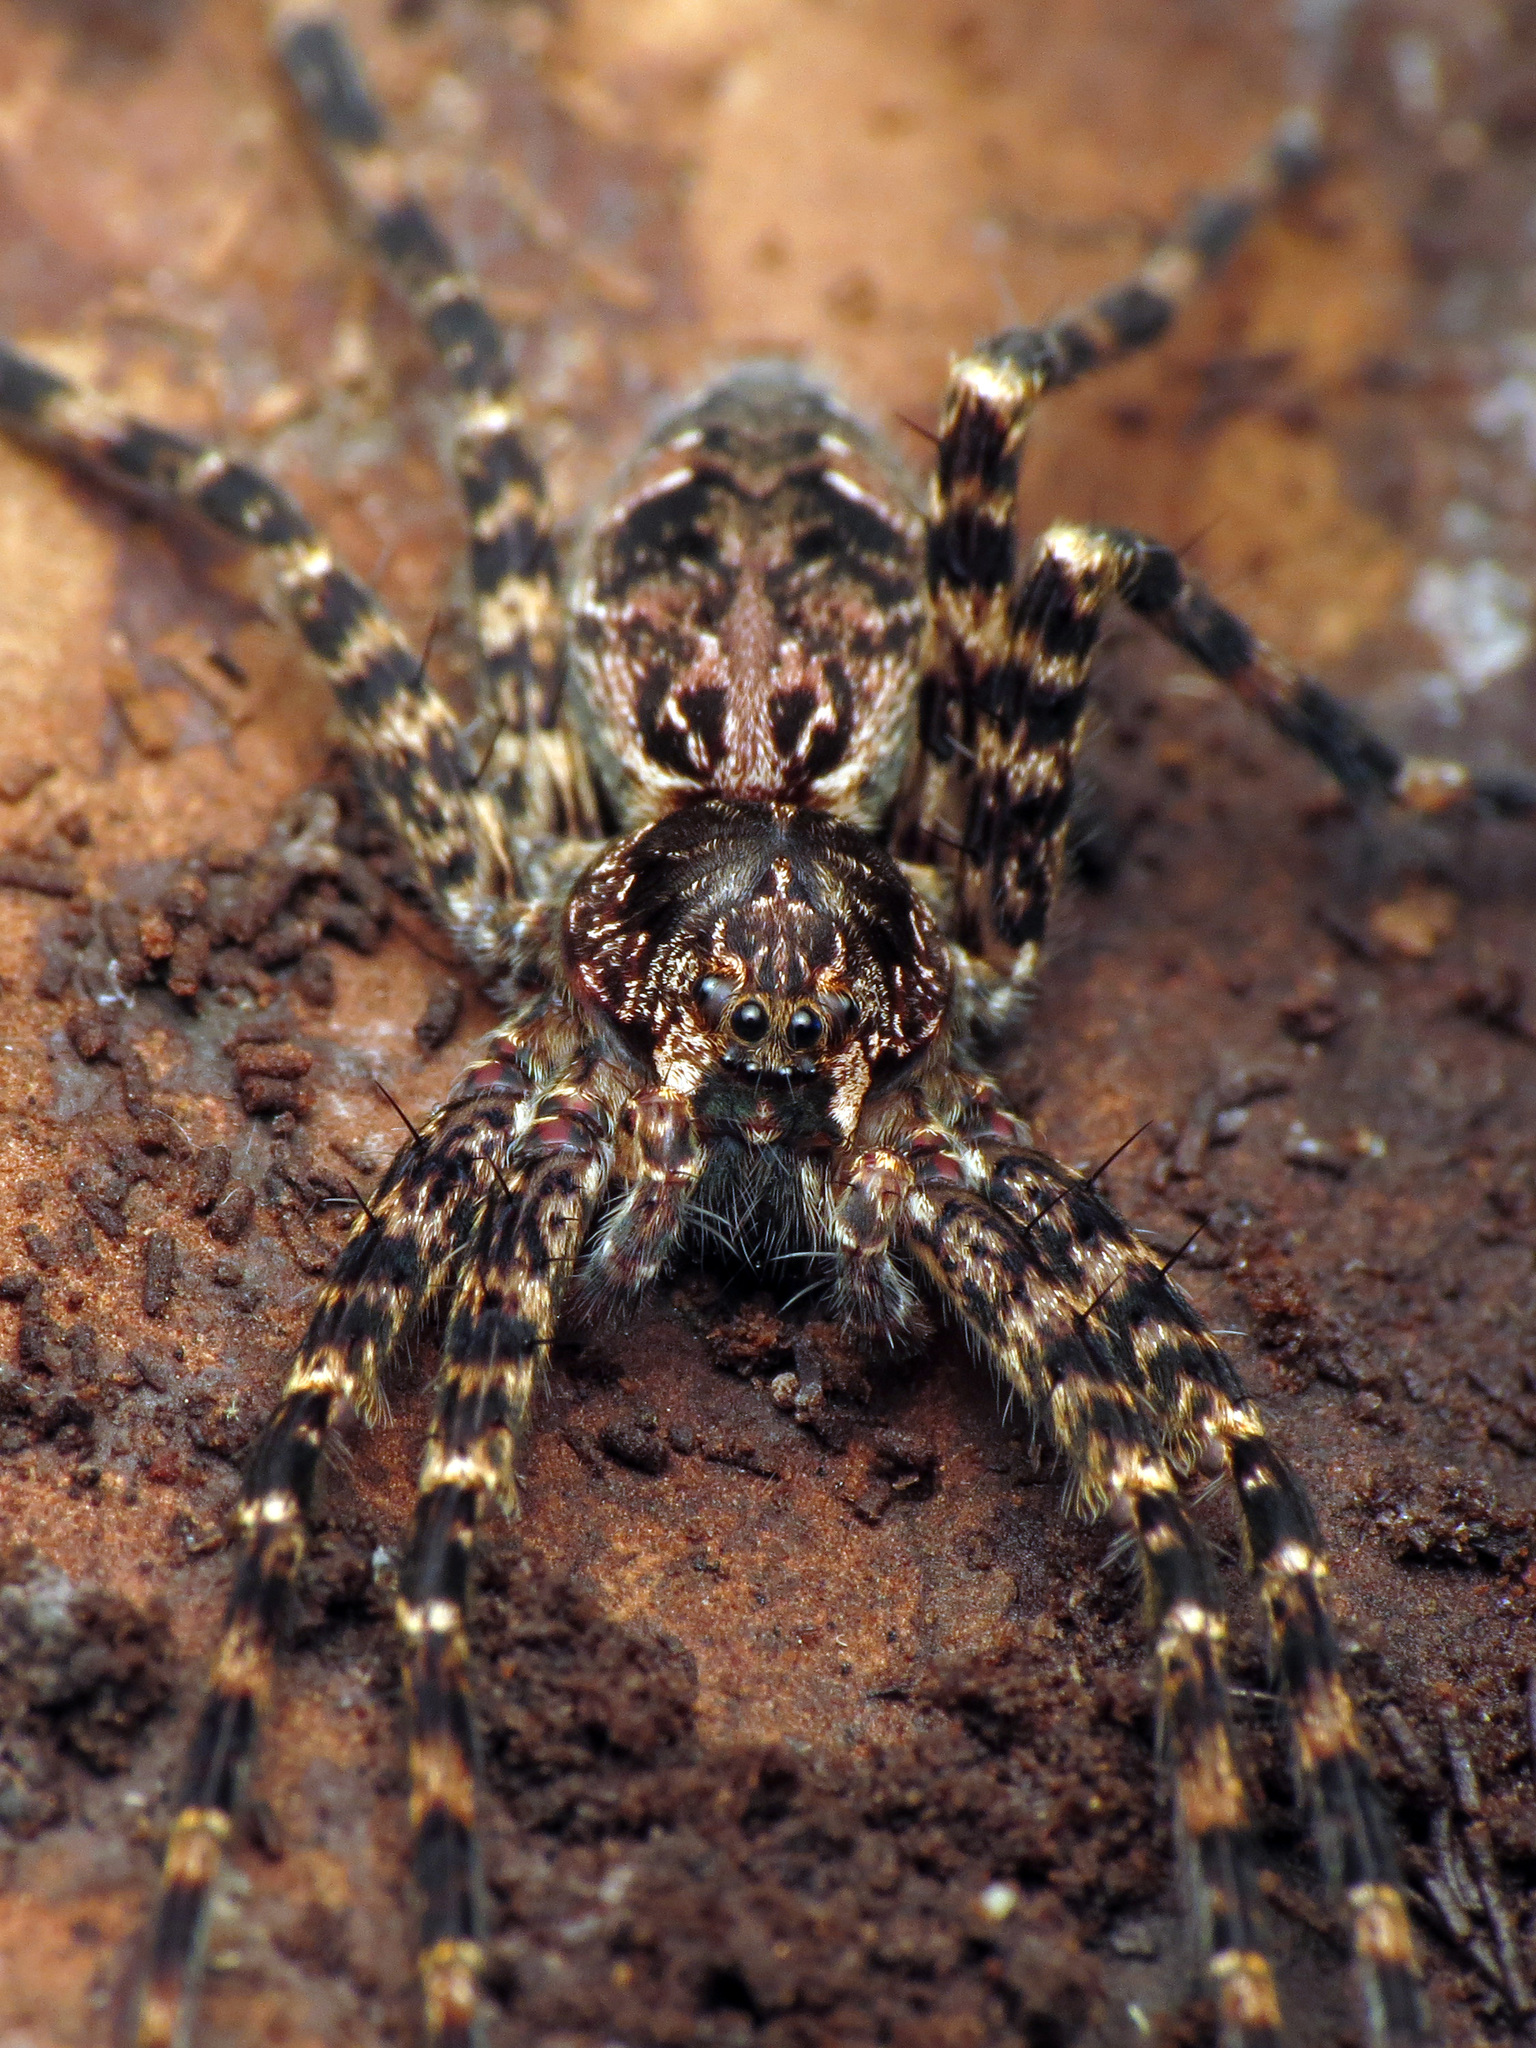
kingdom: Animalia
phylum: Arthropoda
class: Arachnida
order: Araneae
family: Pisauridae
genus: Dolomedes
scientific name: Dolomedes tenebrosus
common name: Dark fishing spider
